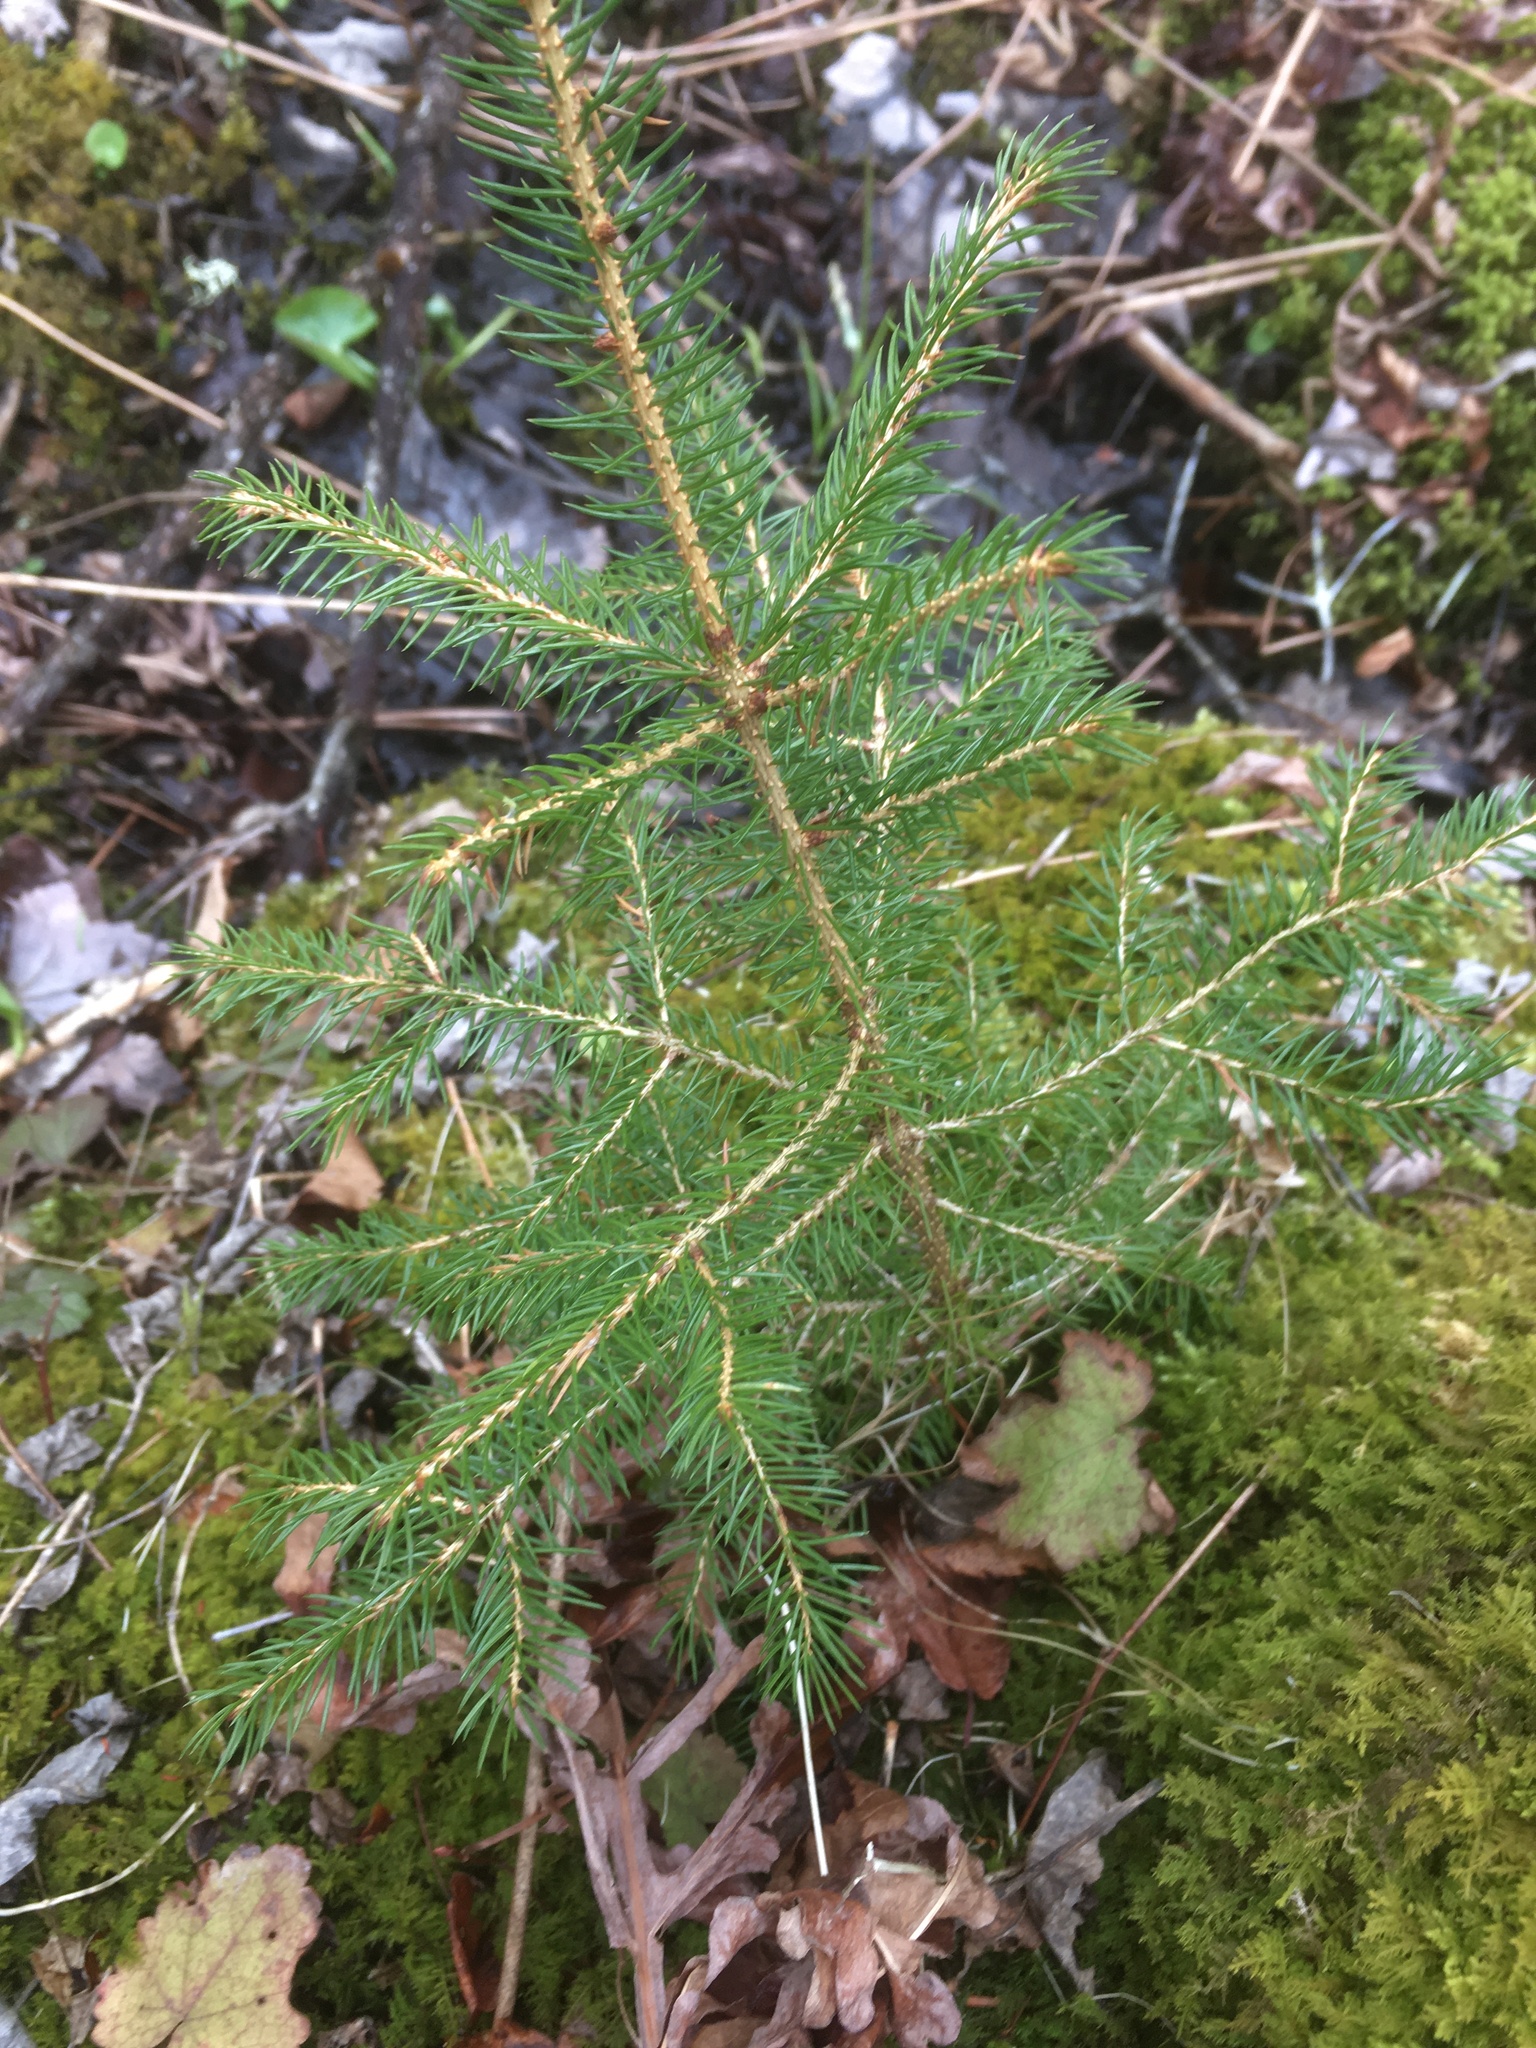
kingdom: Plantae
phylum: Tracheophyta
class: Pinopsida
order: Pinales
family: Pinaceae
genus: Picea
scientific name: Picea rubens
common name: Red spruce
